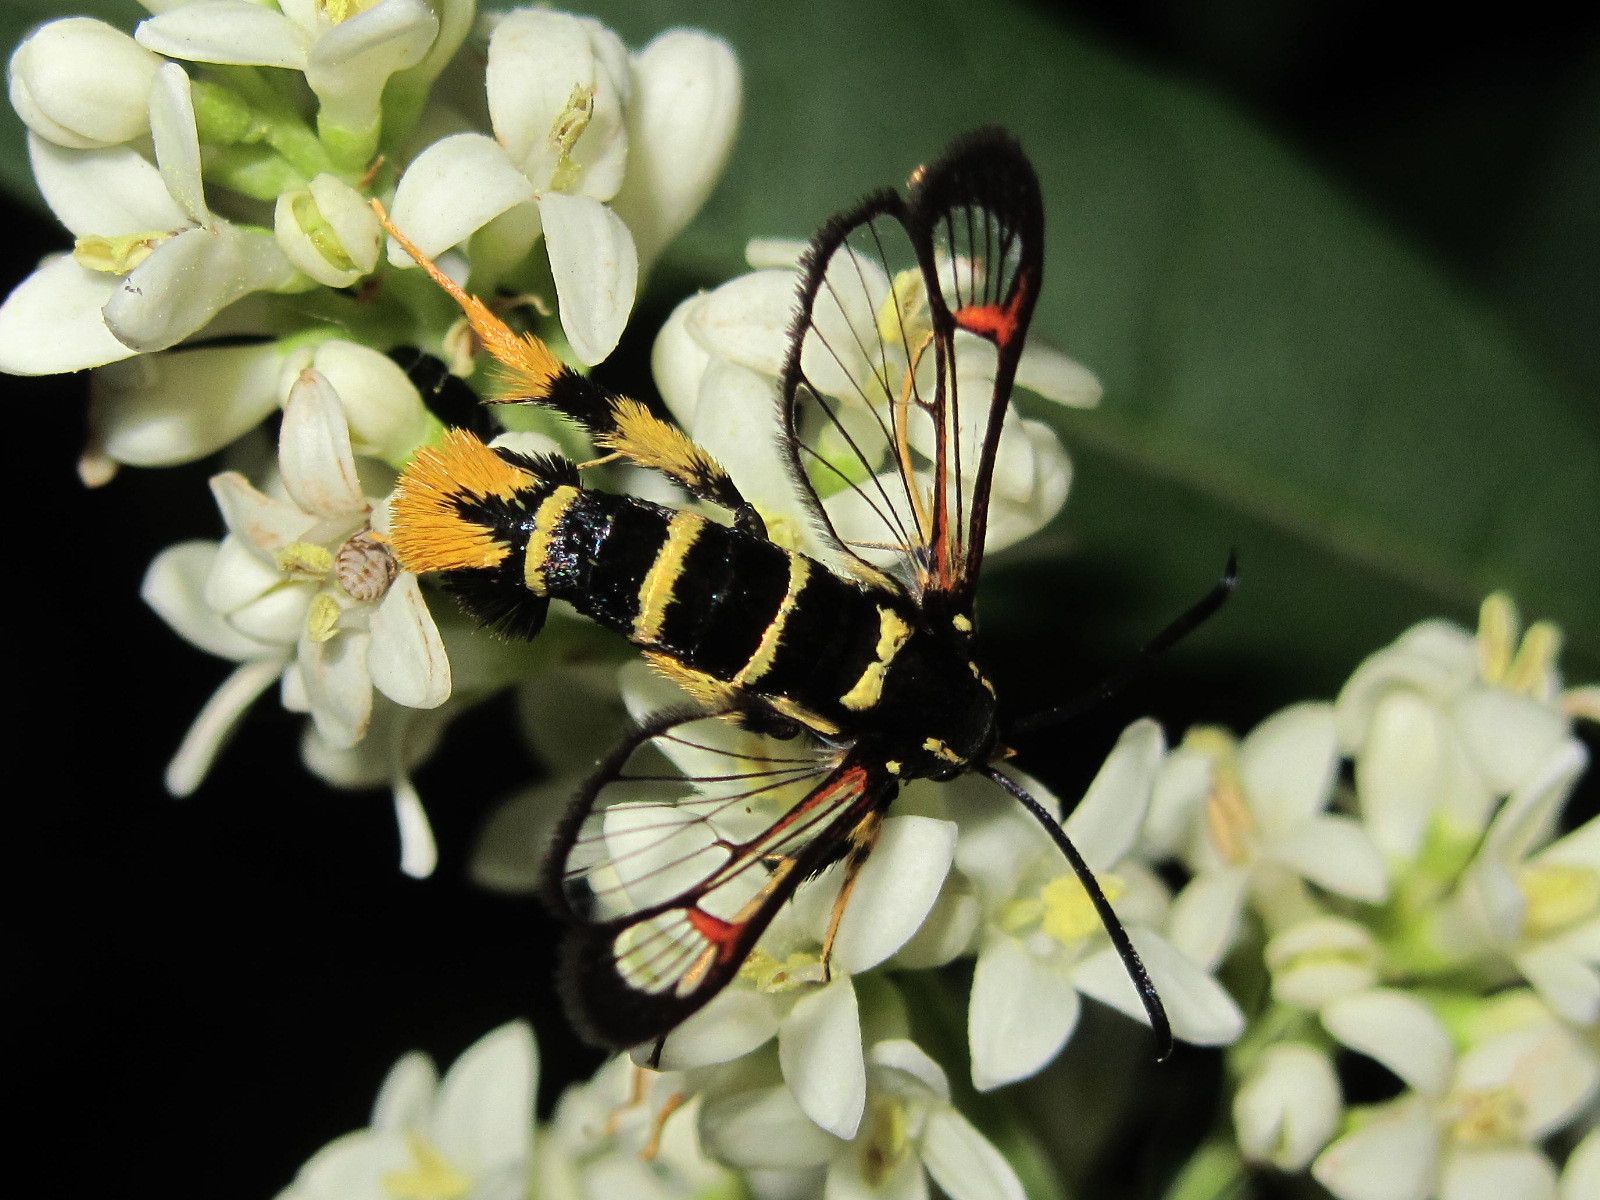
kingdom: Animalia
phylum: Arthropoda
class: Insecta
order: Lepidoptera
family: Sesiidae
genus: Synanthedon
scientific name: Synanthedon vespiformis
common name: Yellow-legged clearwing
